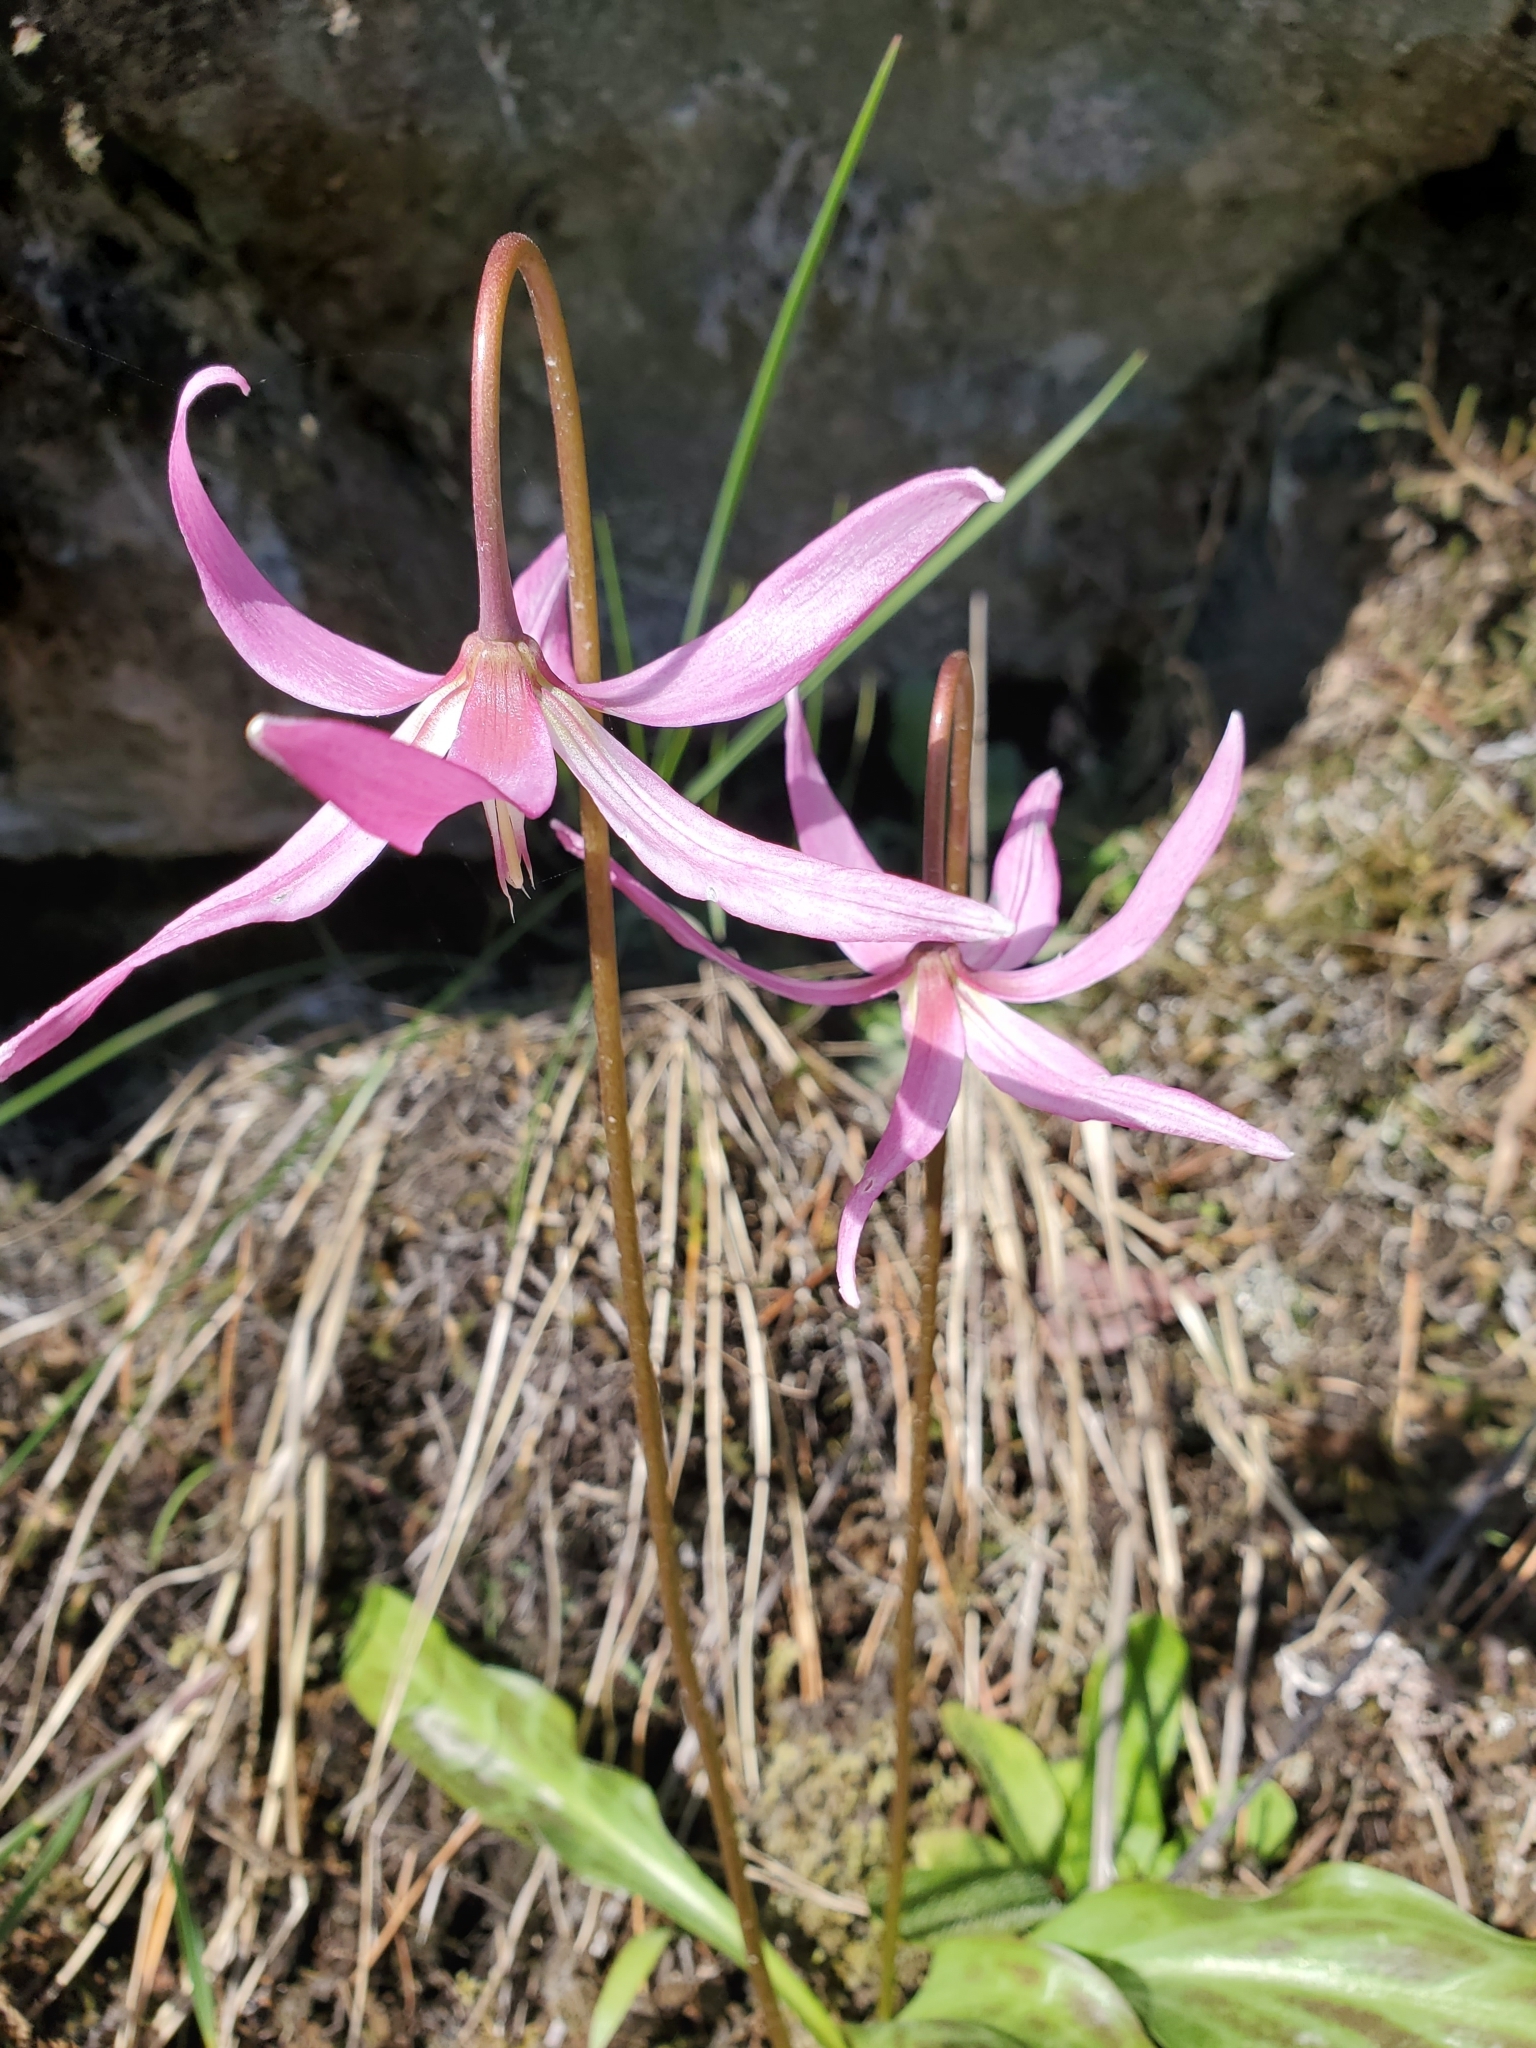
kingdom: Plantae
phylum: Tracheophyta
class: Liliopsida
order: Liliales
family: Liliaceae
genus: Erythronium
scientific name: Erythronium revolutum
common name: Pink fawn-lily
